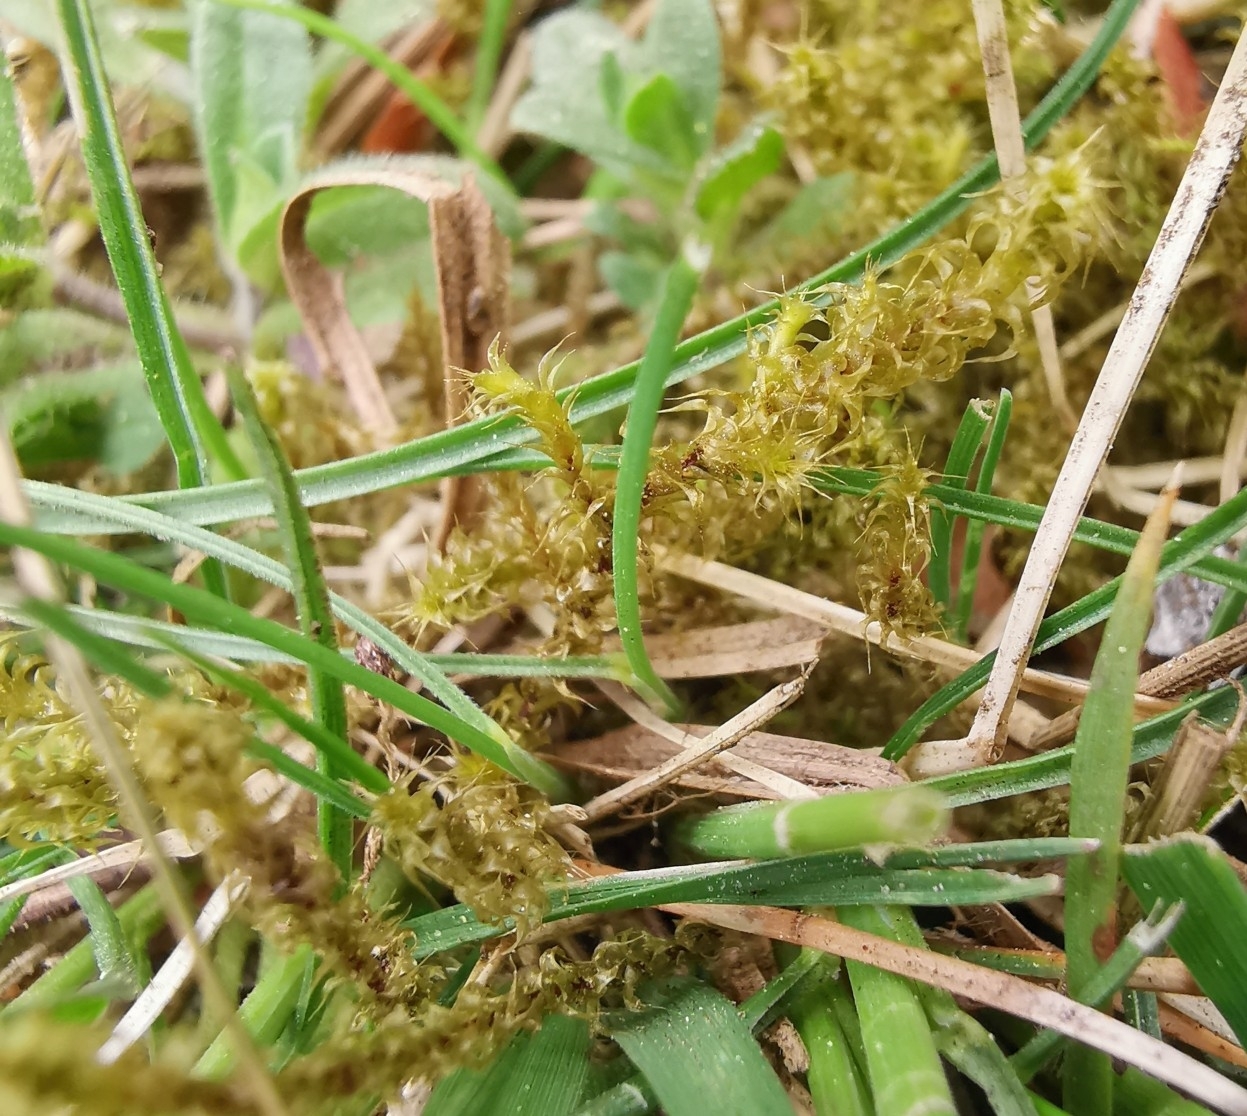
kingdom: Plantae
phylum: Bryophyta
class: Bryopsida
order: Hypnales
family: Hylocomiaceae
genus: Rhytidiadelphus
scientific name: Rhytidiadelphus squarrosus
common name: Springy turf-moss
